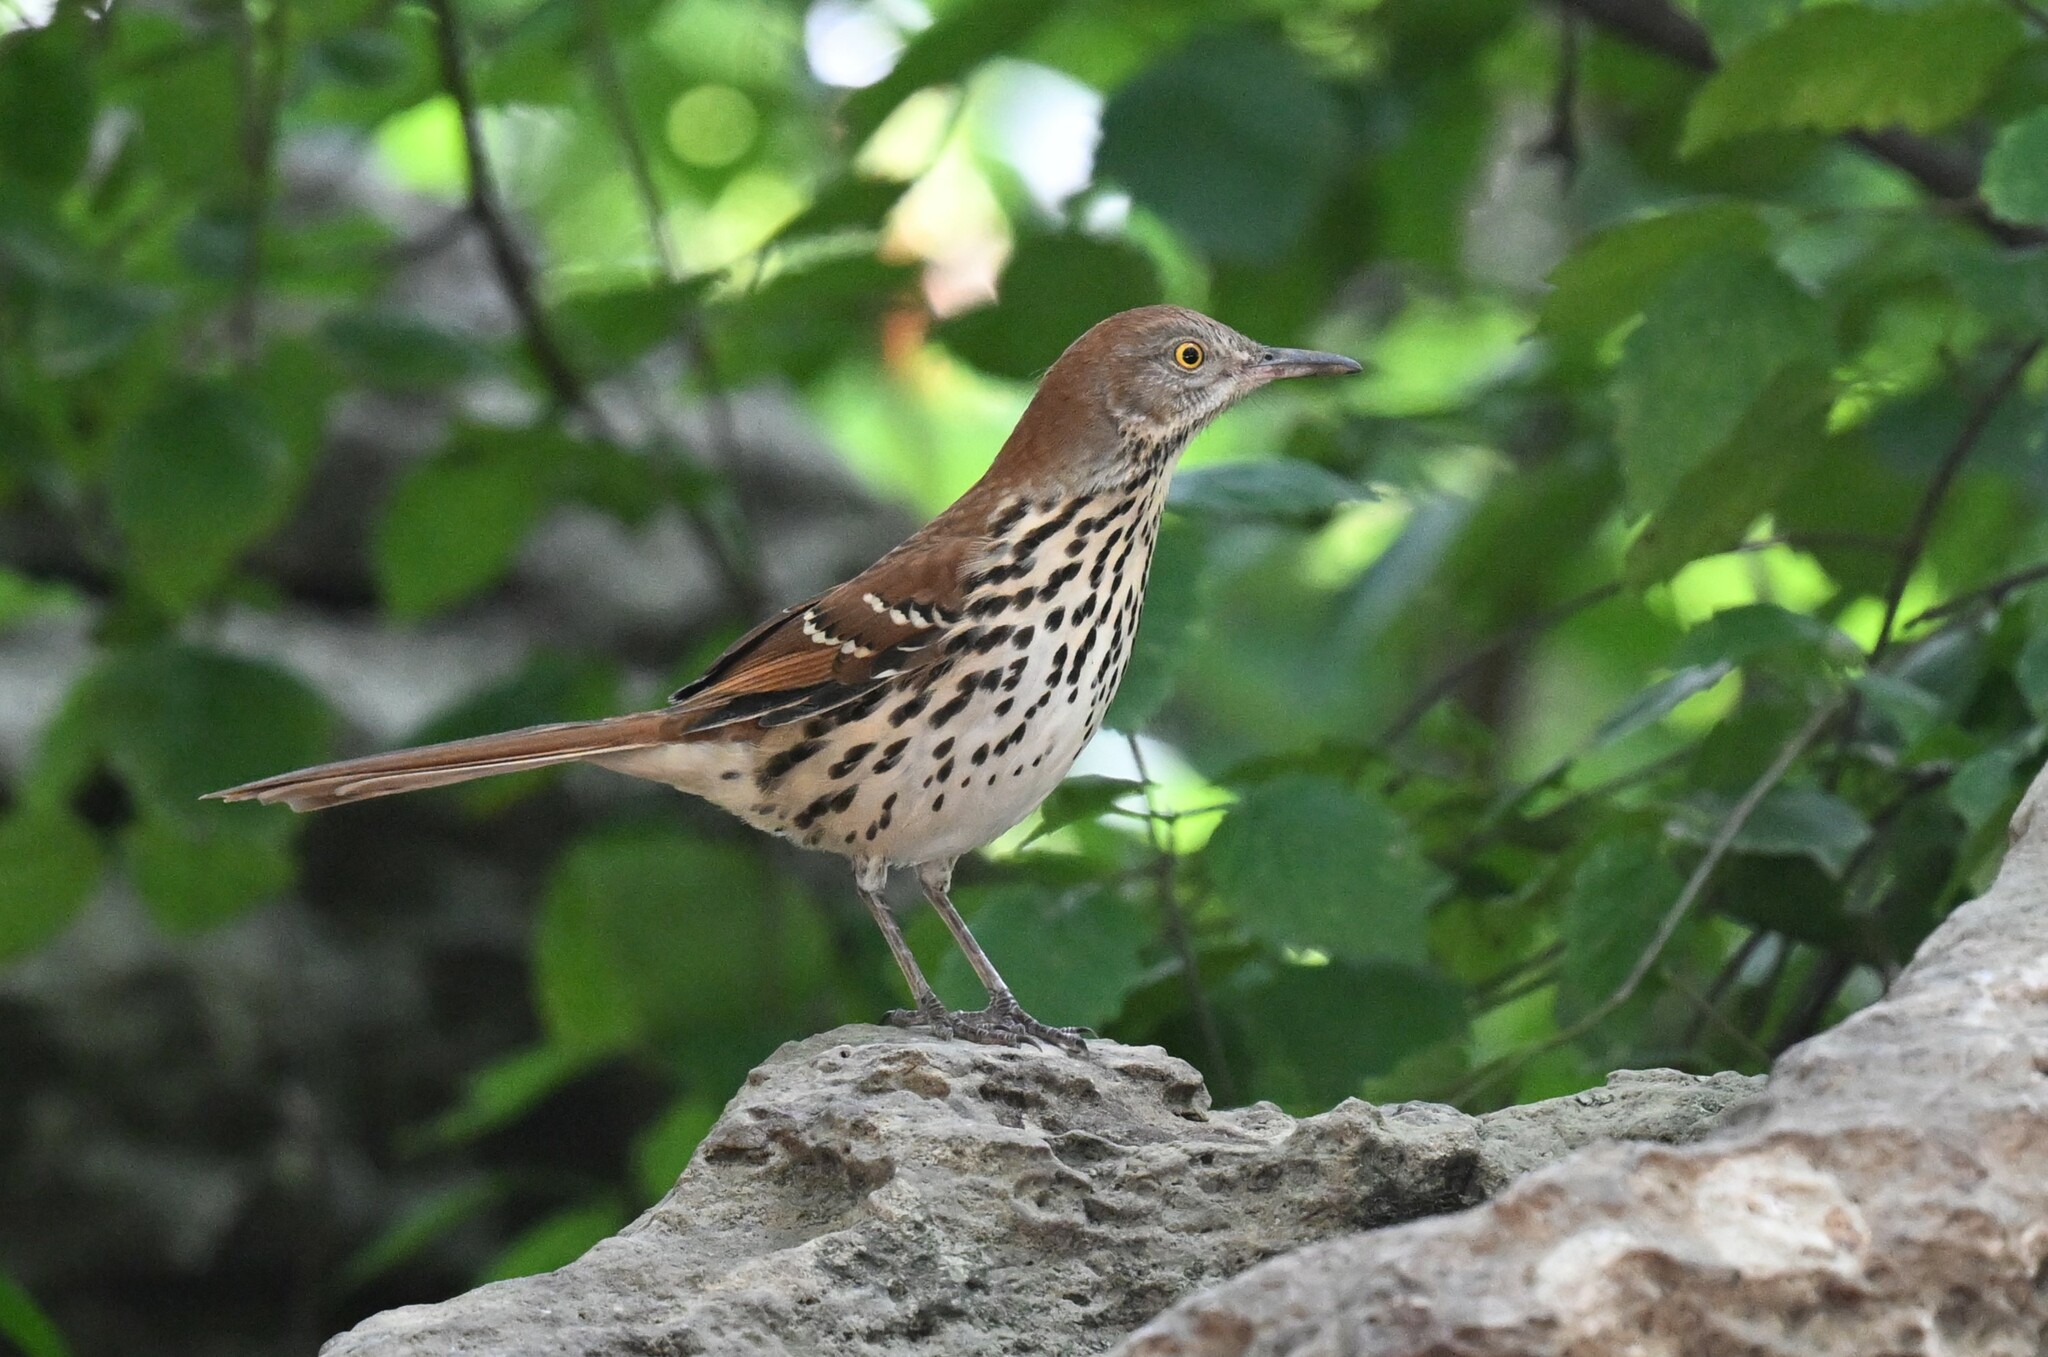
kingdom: Animalia
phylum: Chordata
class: Aves
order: Passeriformes
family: Mimidae
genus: Toxostoma
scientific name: Toxostoma rufum
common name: Brown thrasher
